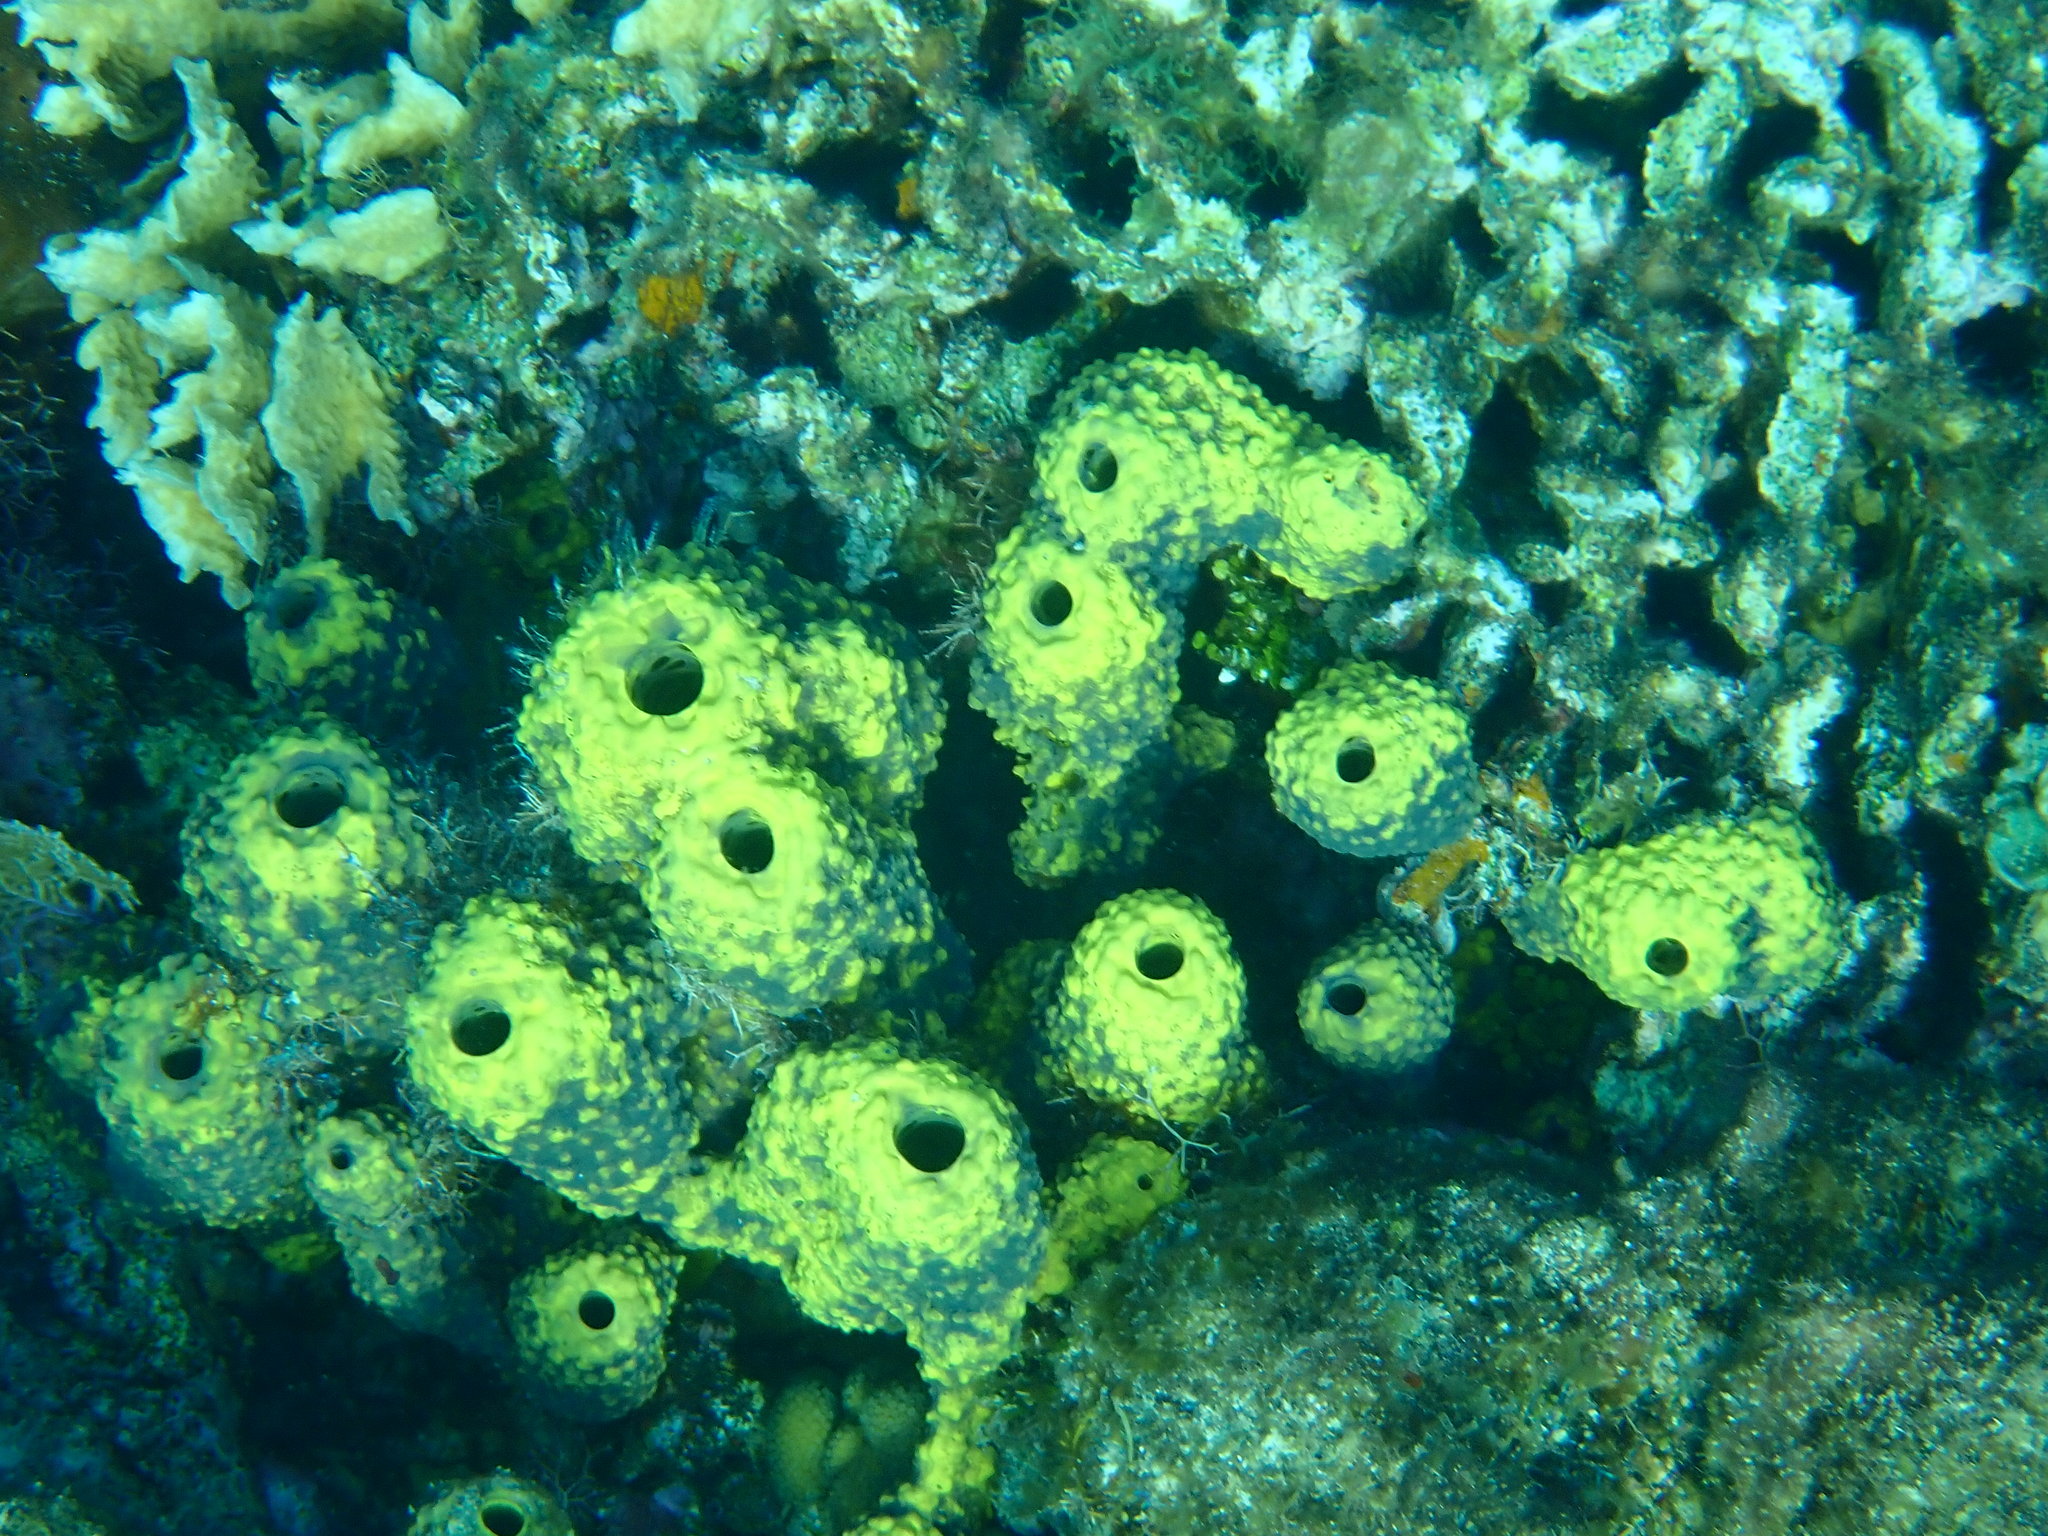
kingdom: Animalia
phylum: Porifera
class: Demospongiae
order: Verongiida
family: Aplysinidae
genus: Aiolochroia
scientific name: Aiolochroia crassa
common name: Branching tube sponge
